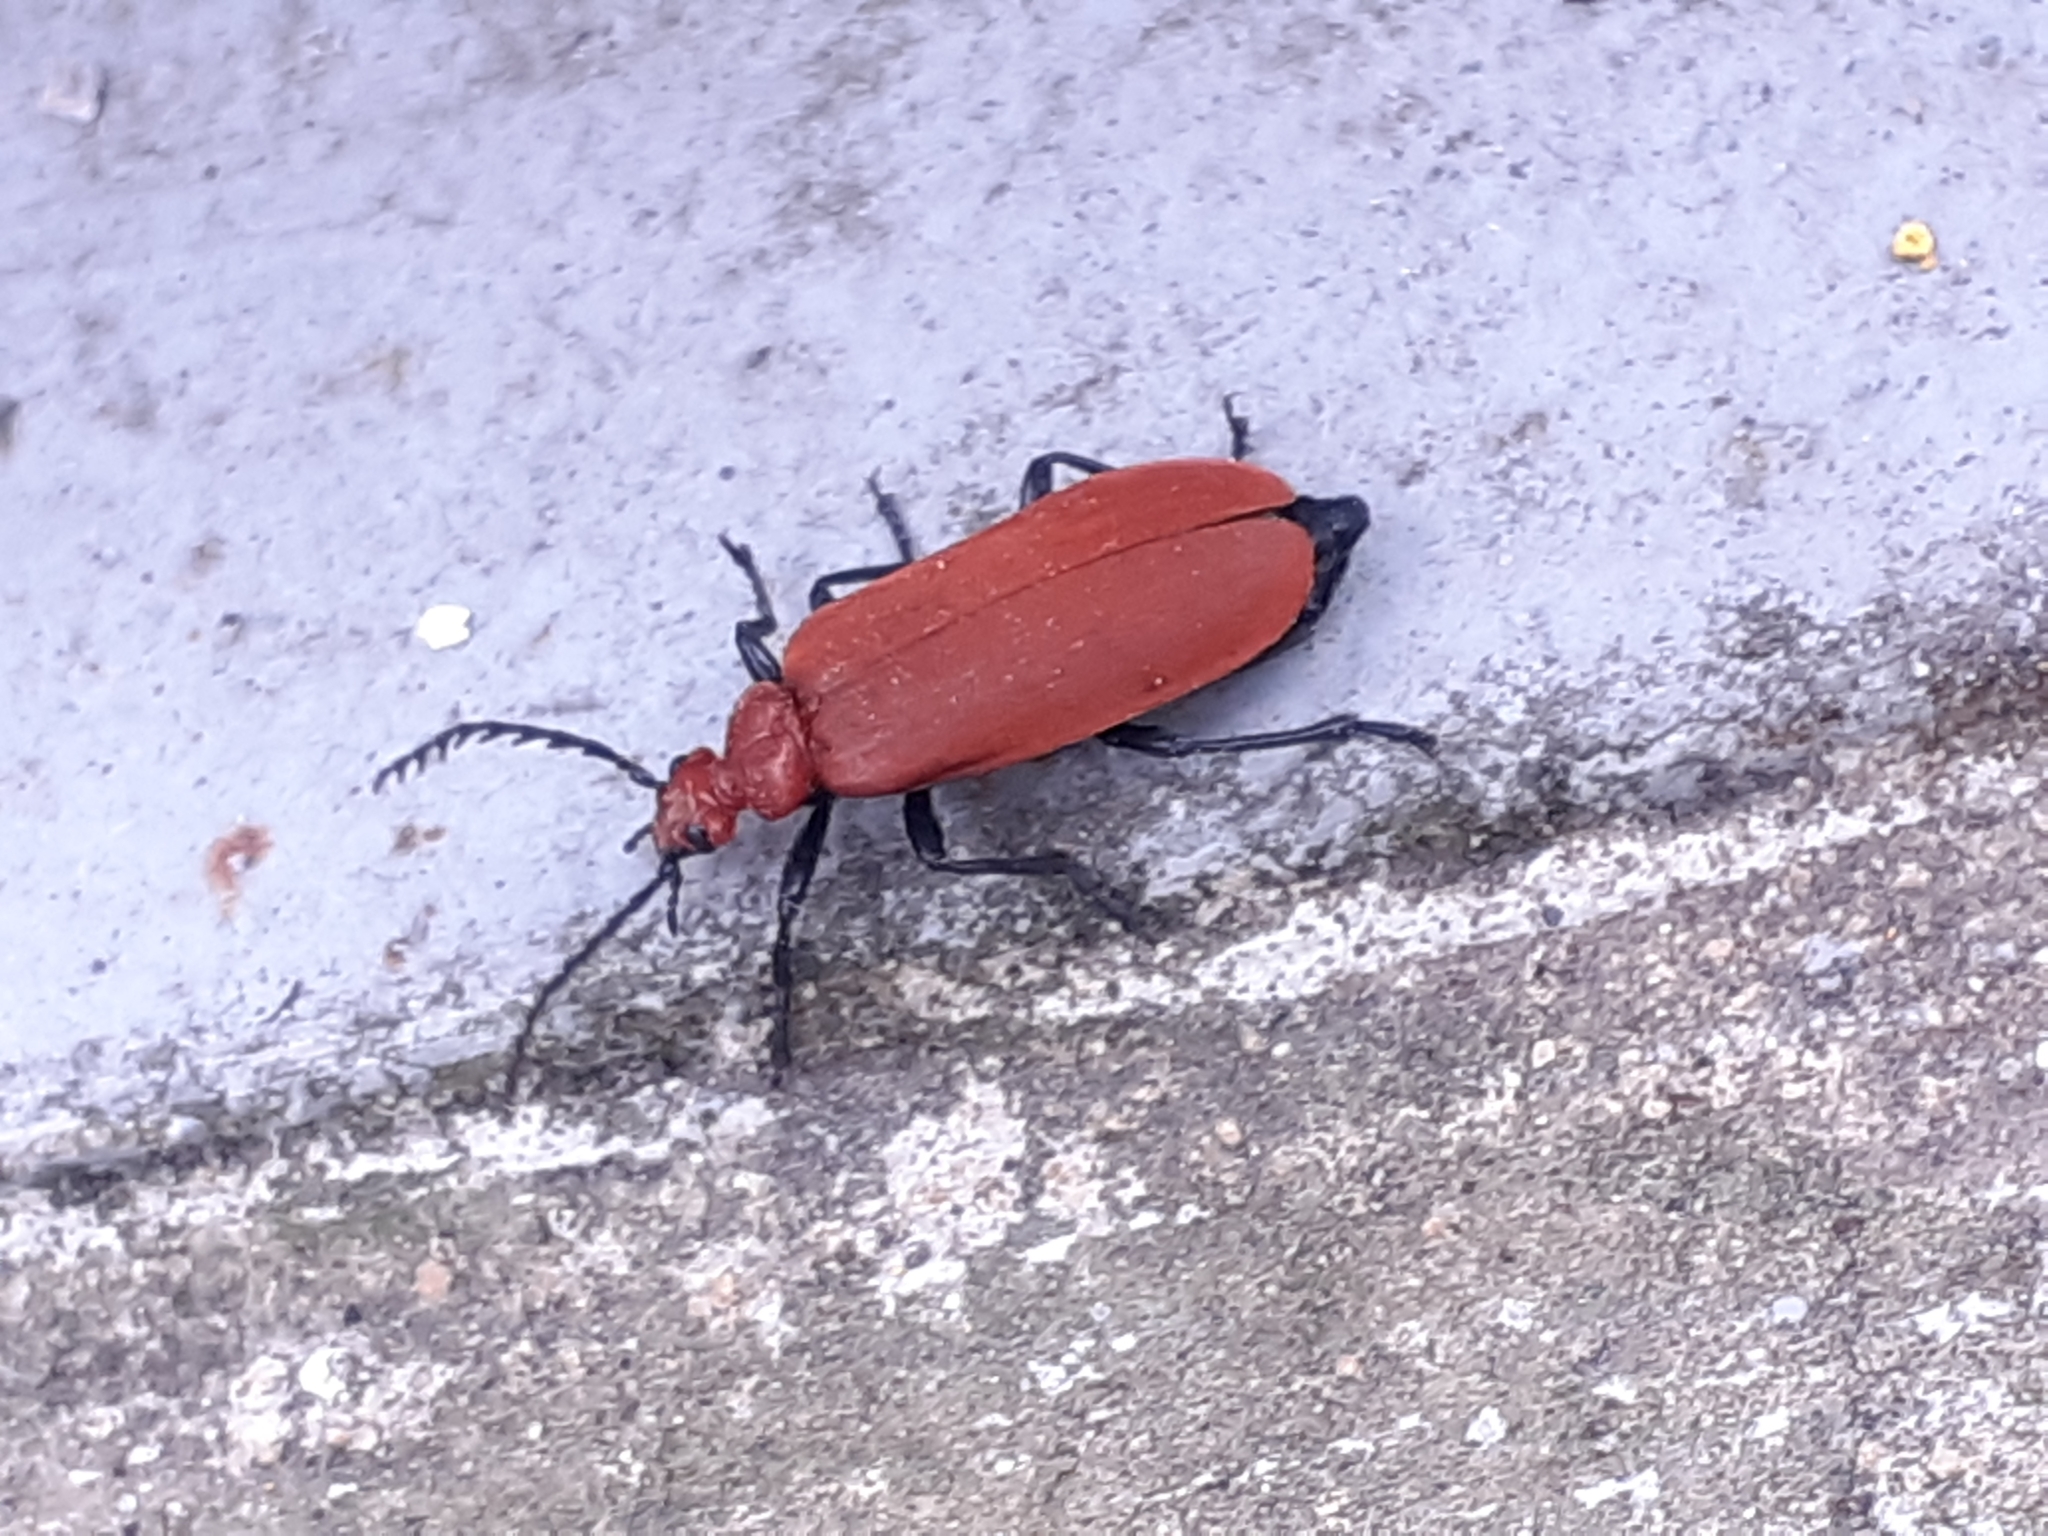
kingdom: Animalia
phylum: Arthropoda
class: Insecta
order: Coleoptera
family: Pyrochroidae
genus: Pyrochroa
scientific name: Pyrochroa serraticornis
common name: Red-headed cardinal beetle
